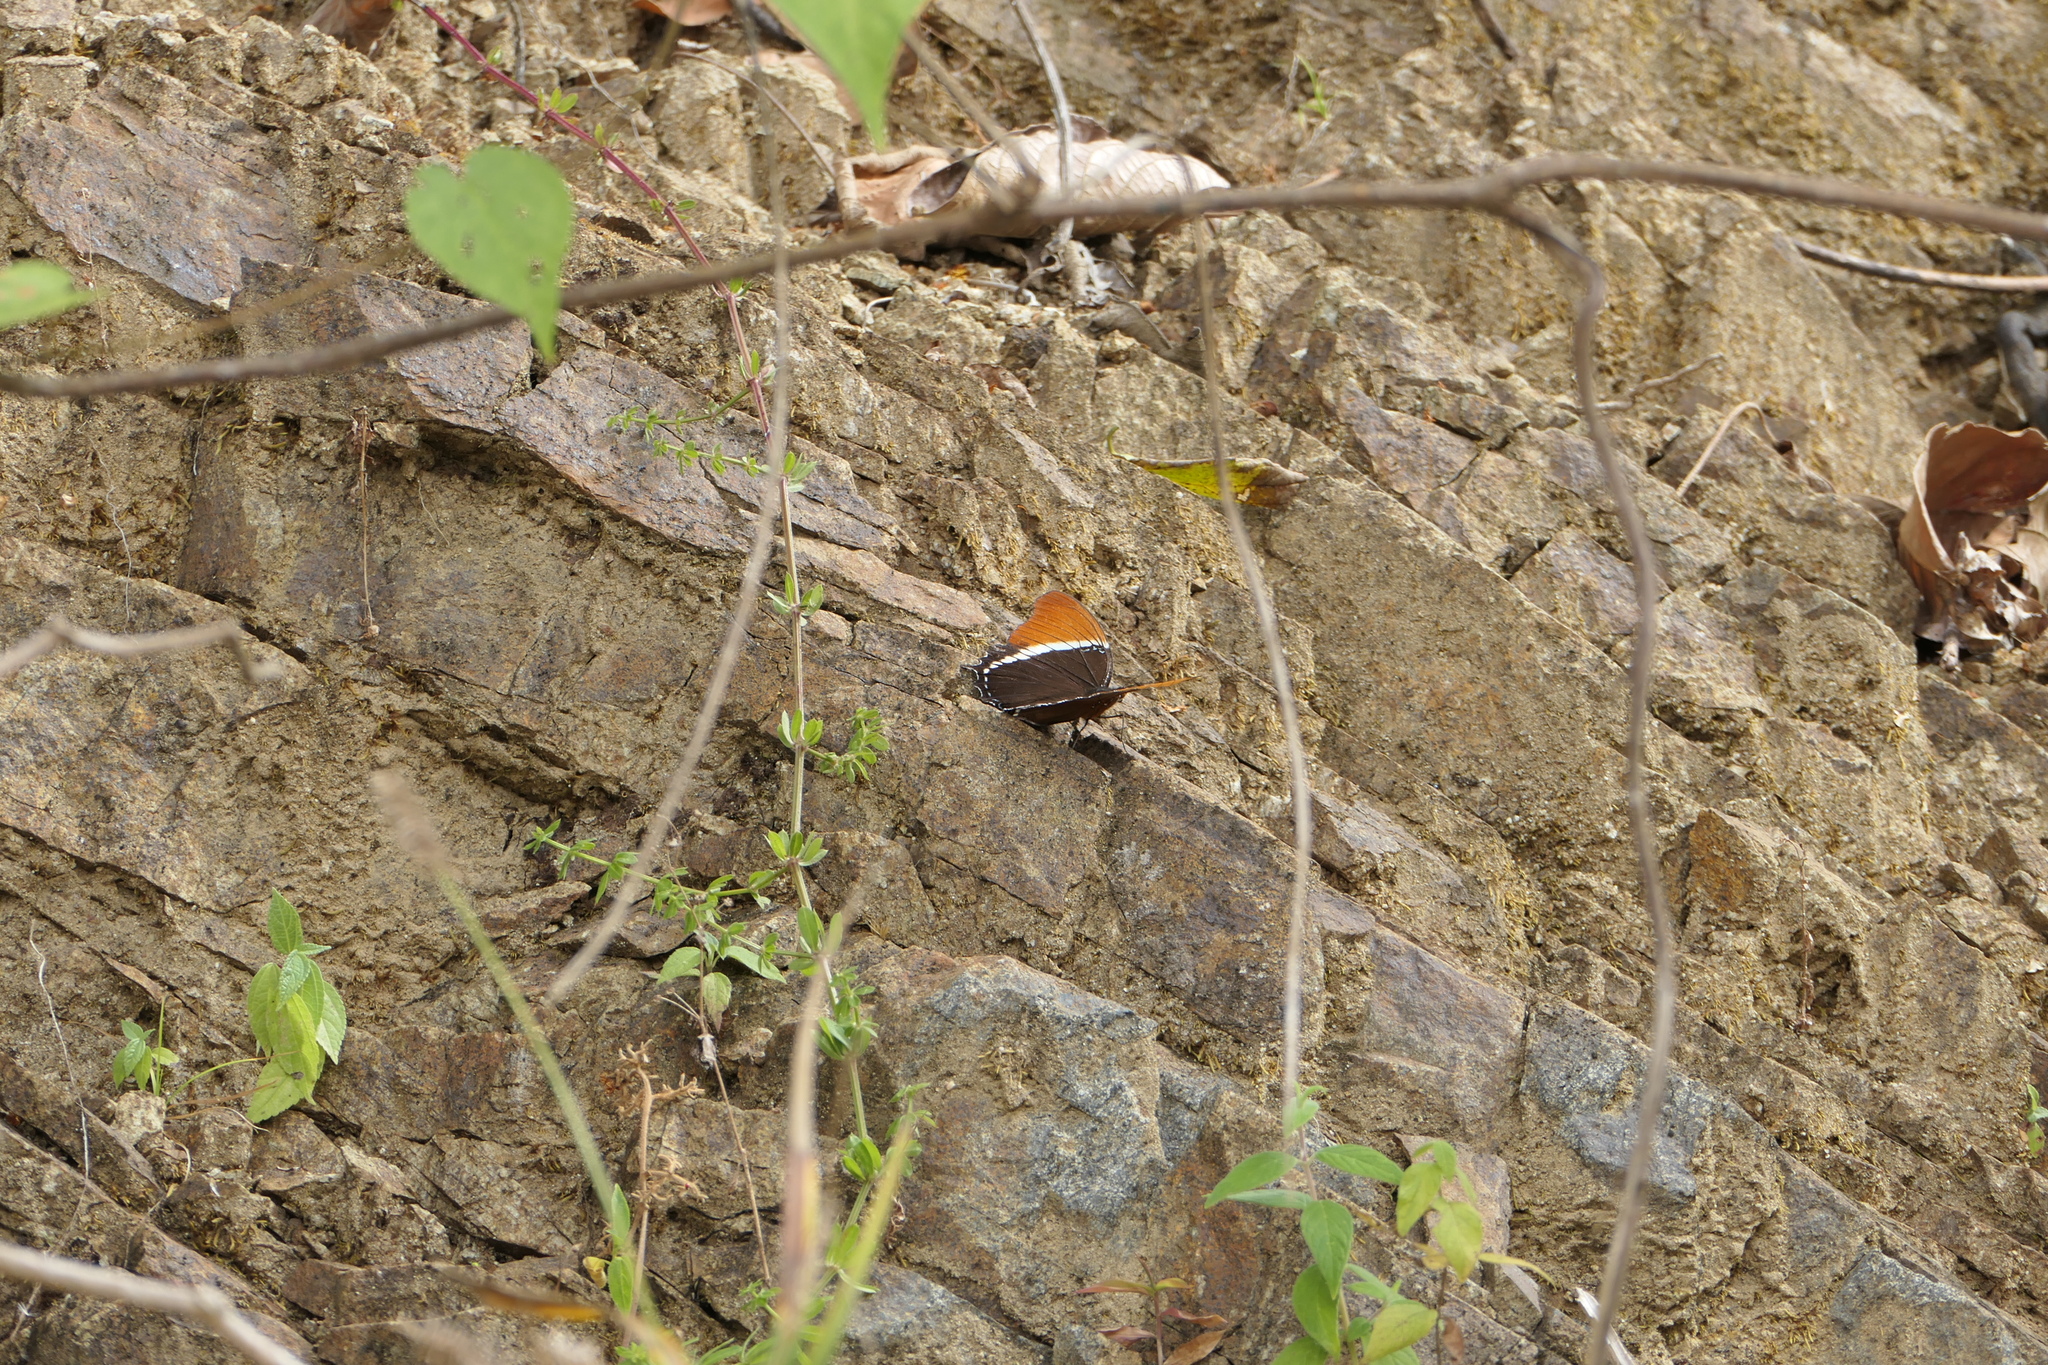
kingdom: Animalia
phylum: Arthropoda
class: Insecta
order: Lepidoptera
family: Nymphalidae
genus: Siproeta
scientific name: Siproeta epaphus
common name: Rusty-tipped page
